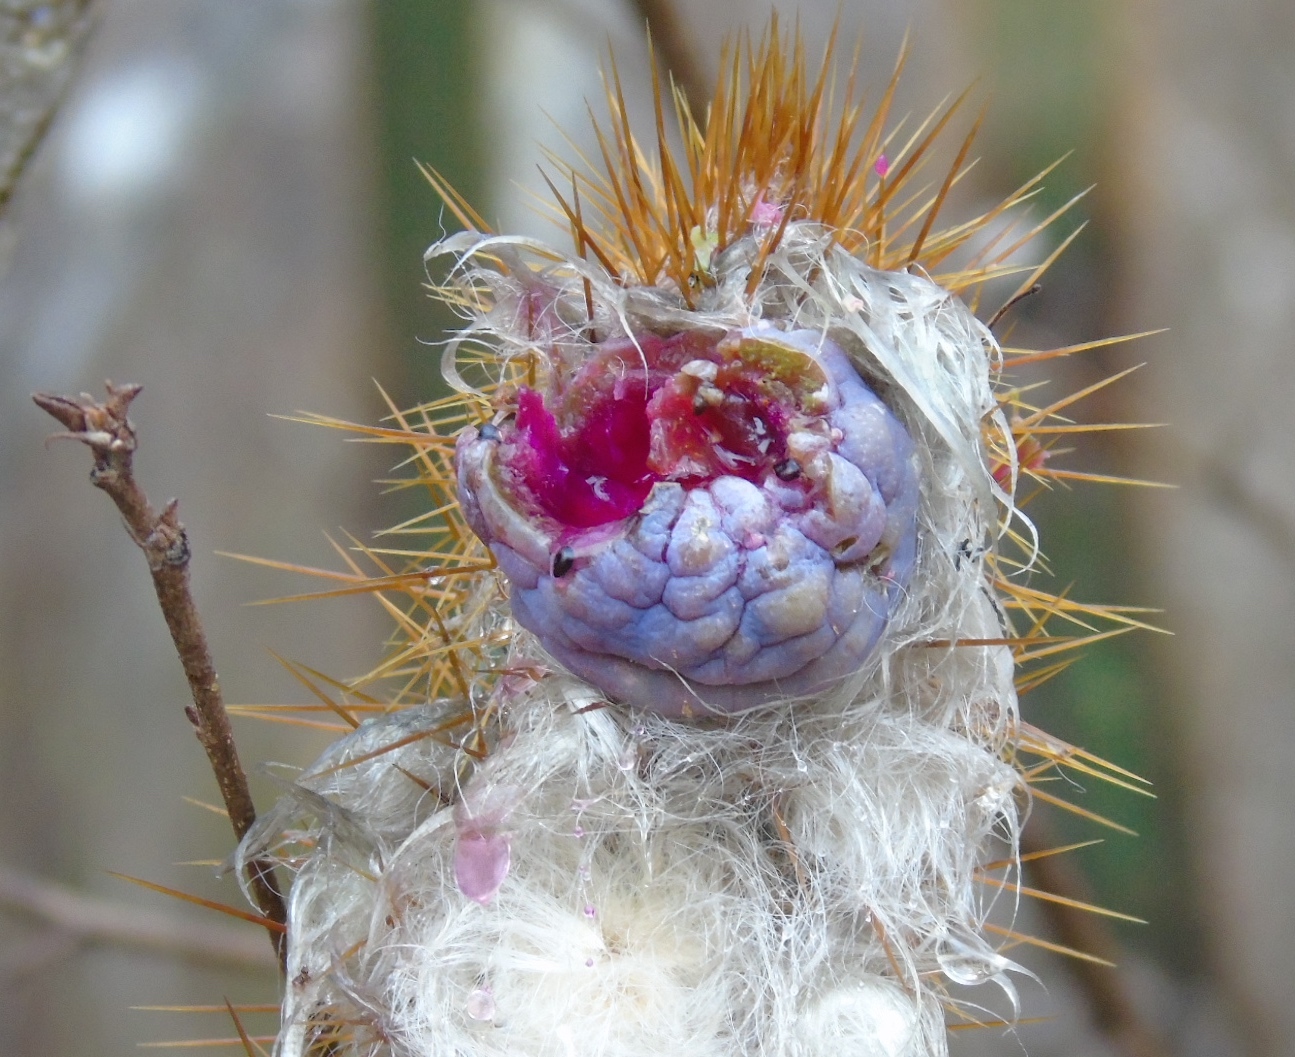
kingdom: Plantae
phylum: Tracheophyta
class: Magnoliopsida
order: Caryophyllales
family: Cactaceae
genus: Pilosocereus
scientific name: Pilosocereus
